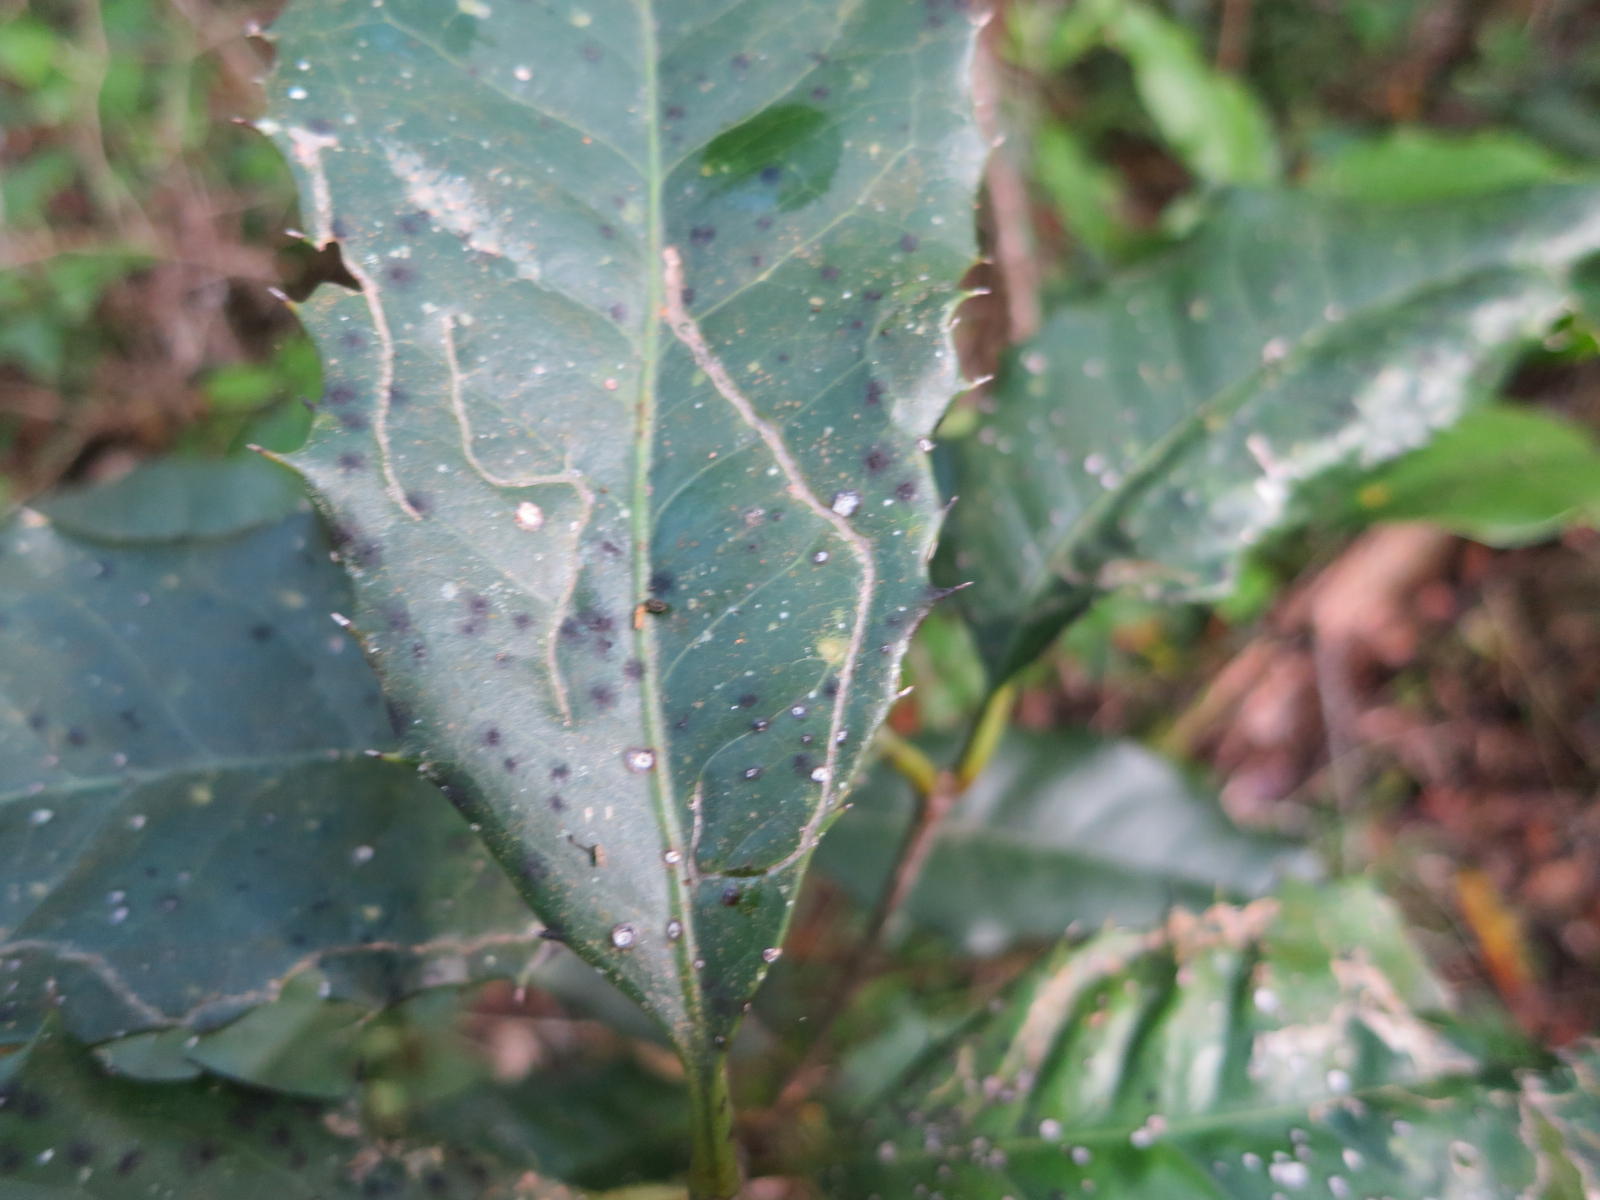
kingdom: Plantae
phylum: Tracheophyta
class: Magnoliopsida
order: Celastrales
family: Celastraceae
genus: Elaeodendron
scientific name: Elaeodendron croceum
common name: Saffron
